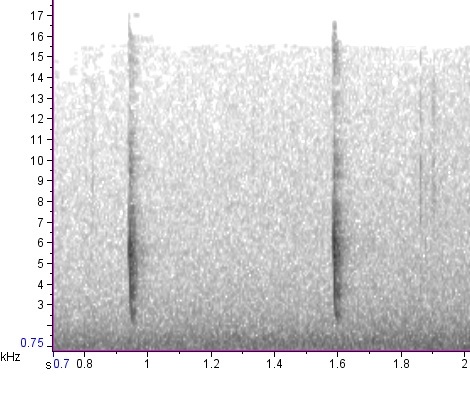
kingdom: Animalia
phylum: Chordata
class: Aves
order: Passeriformes
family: Passerellidae
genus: Passerella
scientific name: Passerella iliaca
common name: Fox sparrow
